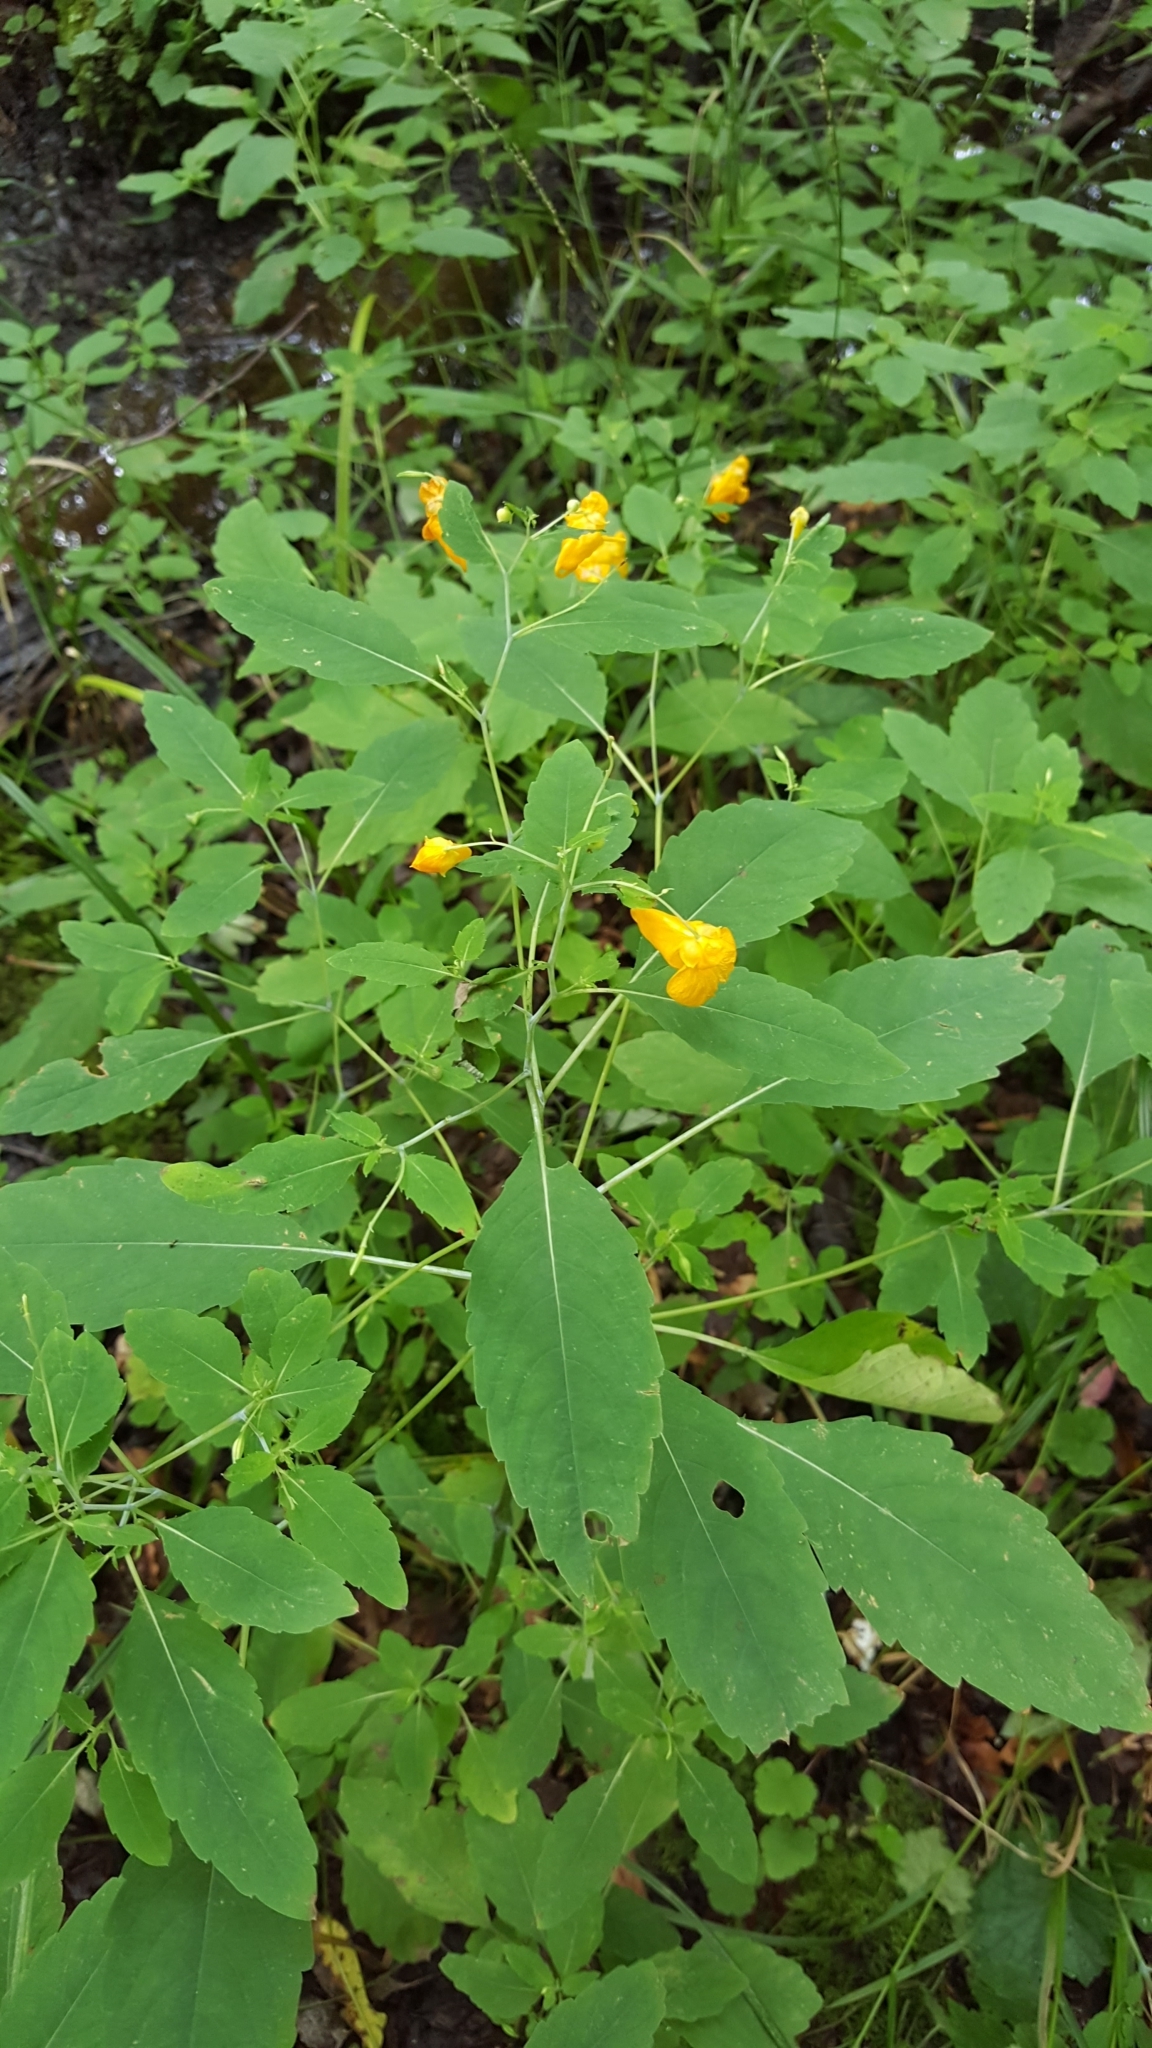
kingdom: Plantae
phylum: Tracheophyta
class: Magnoliopsida
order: Ericales
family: Balsaminaceae
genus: Impatiens
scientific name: Impatiens capensis
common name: Orange balsam
